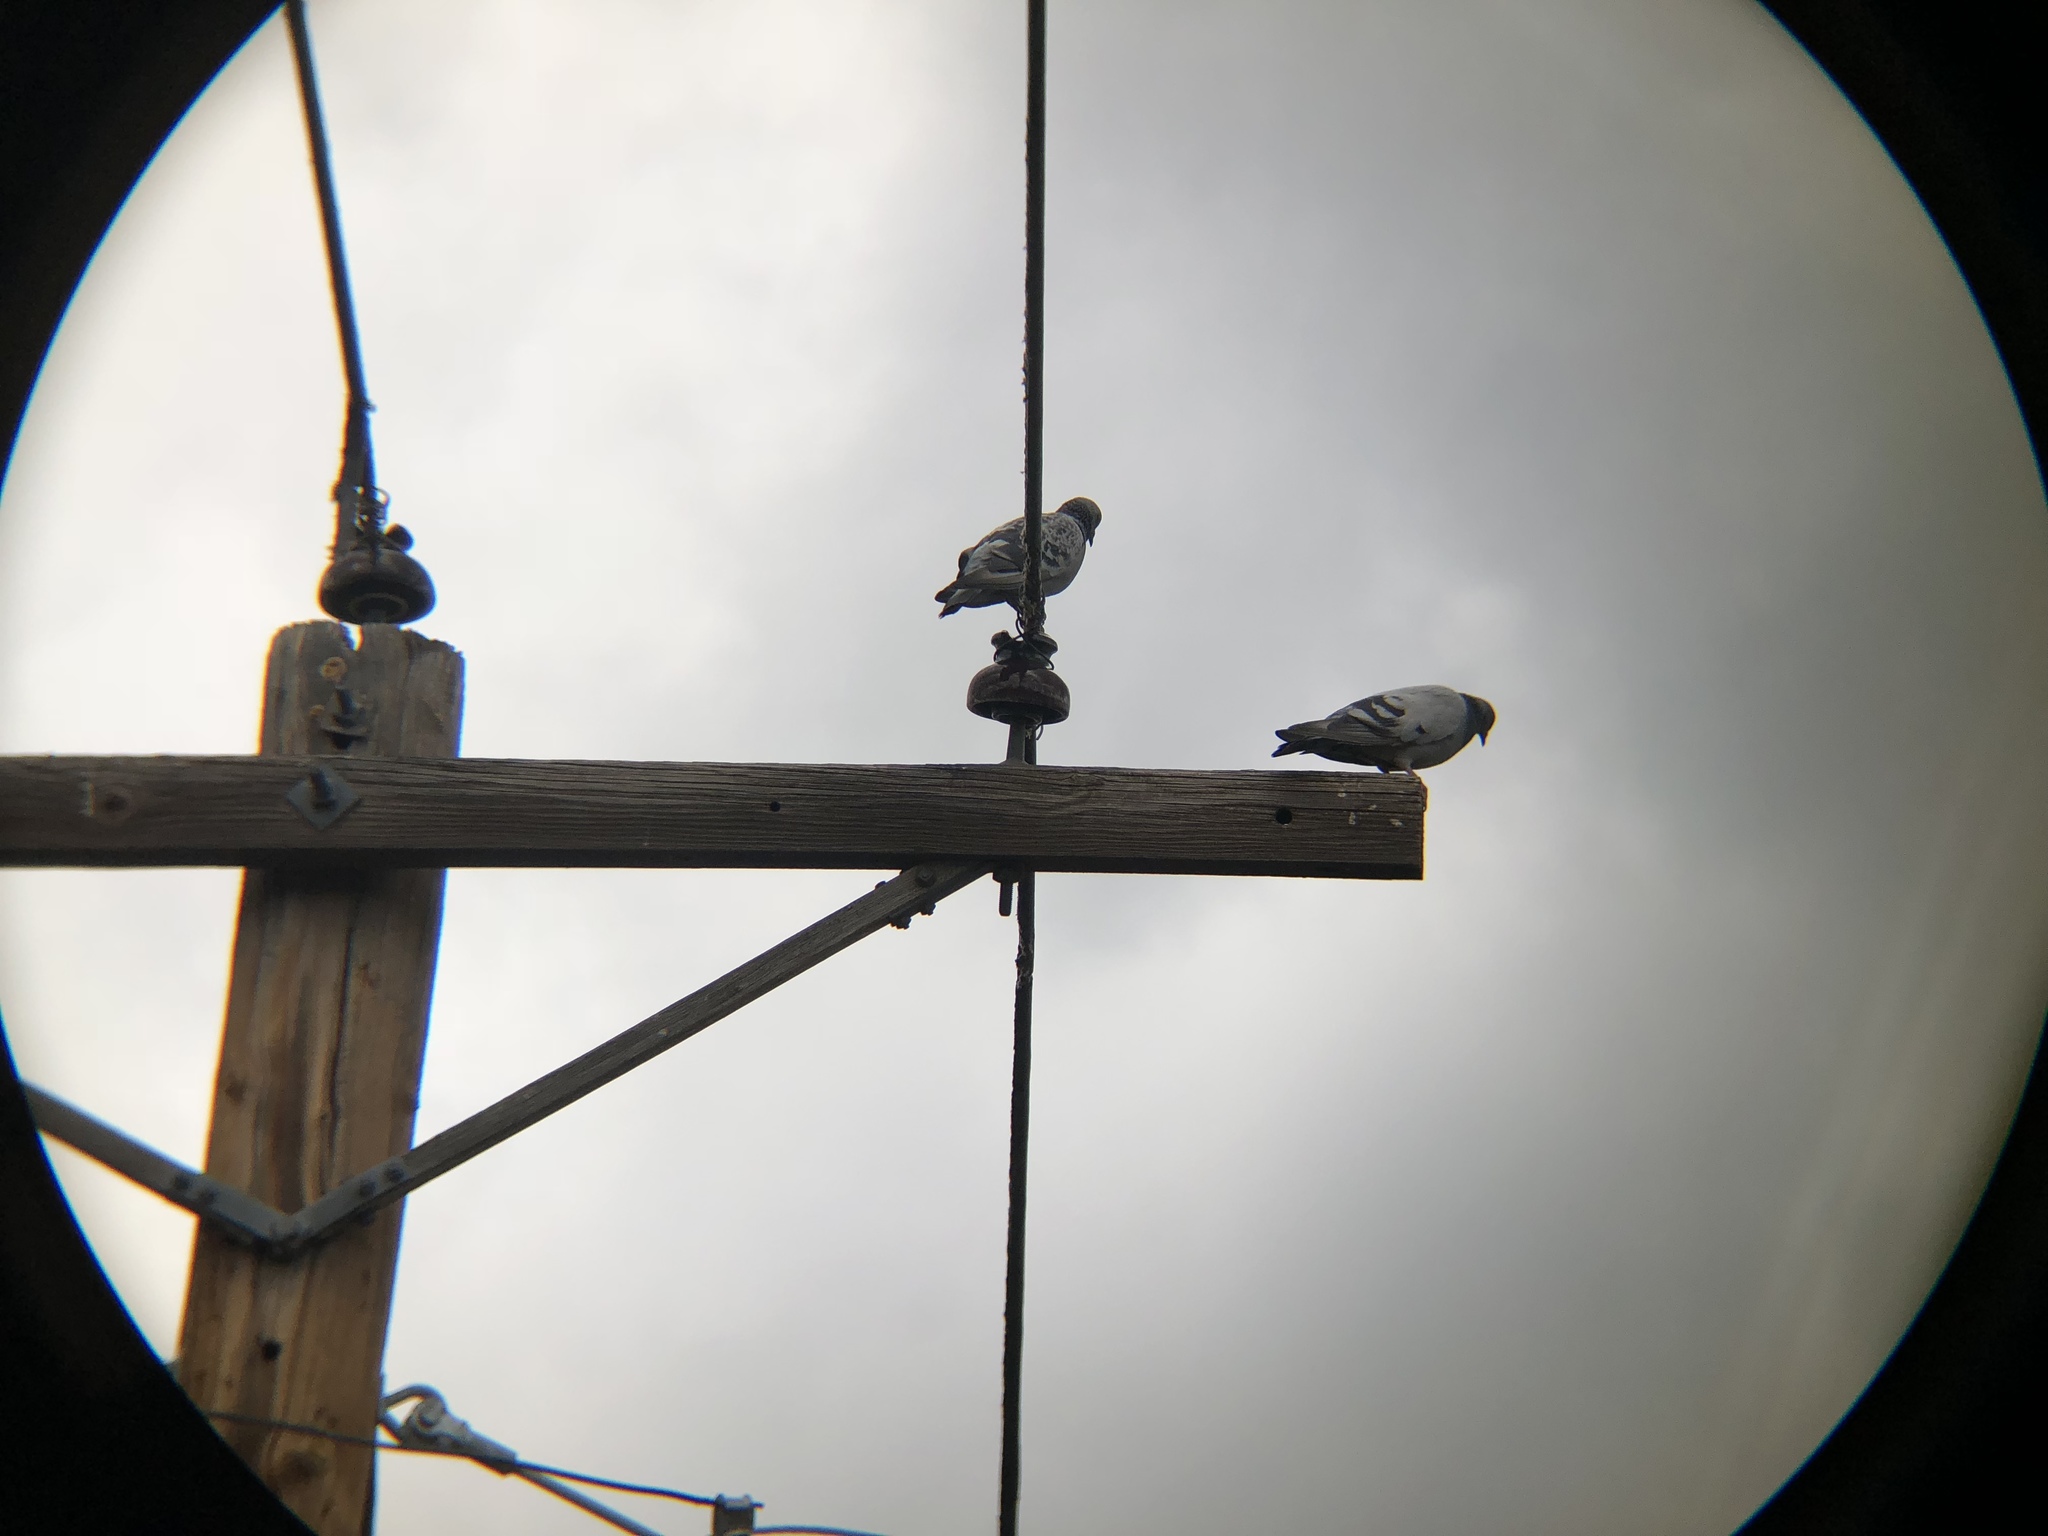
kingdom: Animalia
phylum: Chordata
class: Aves
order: Columbiformes
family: Columbidae
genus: Columba
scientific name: Columba livia
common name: Rock pigeon
